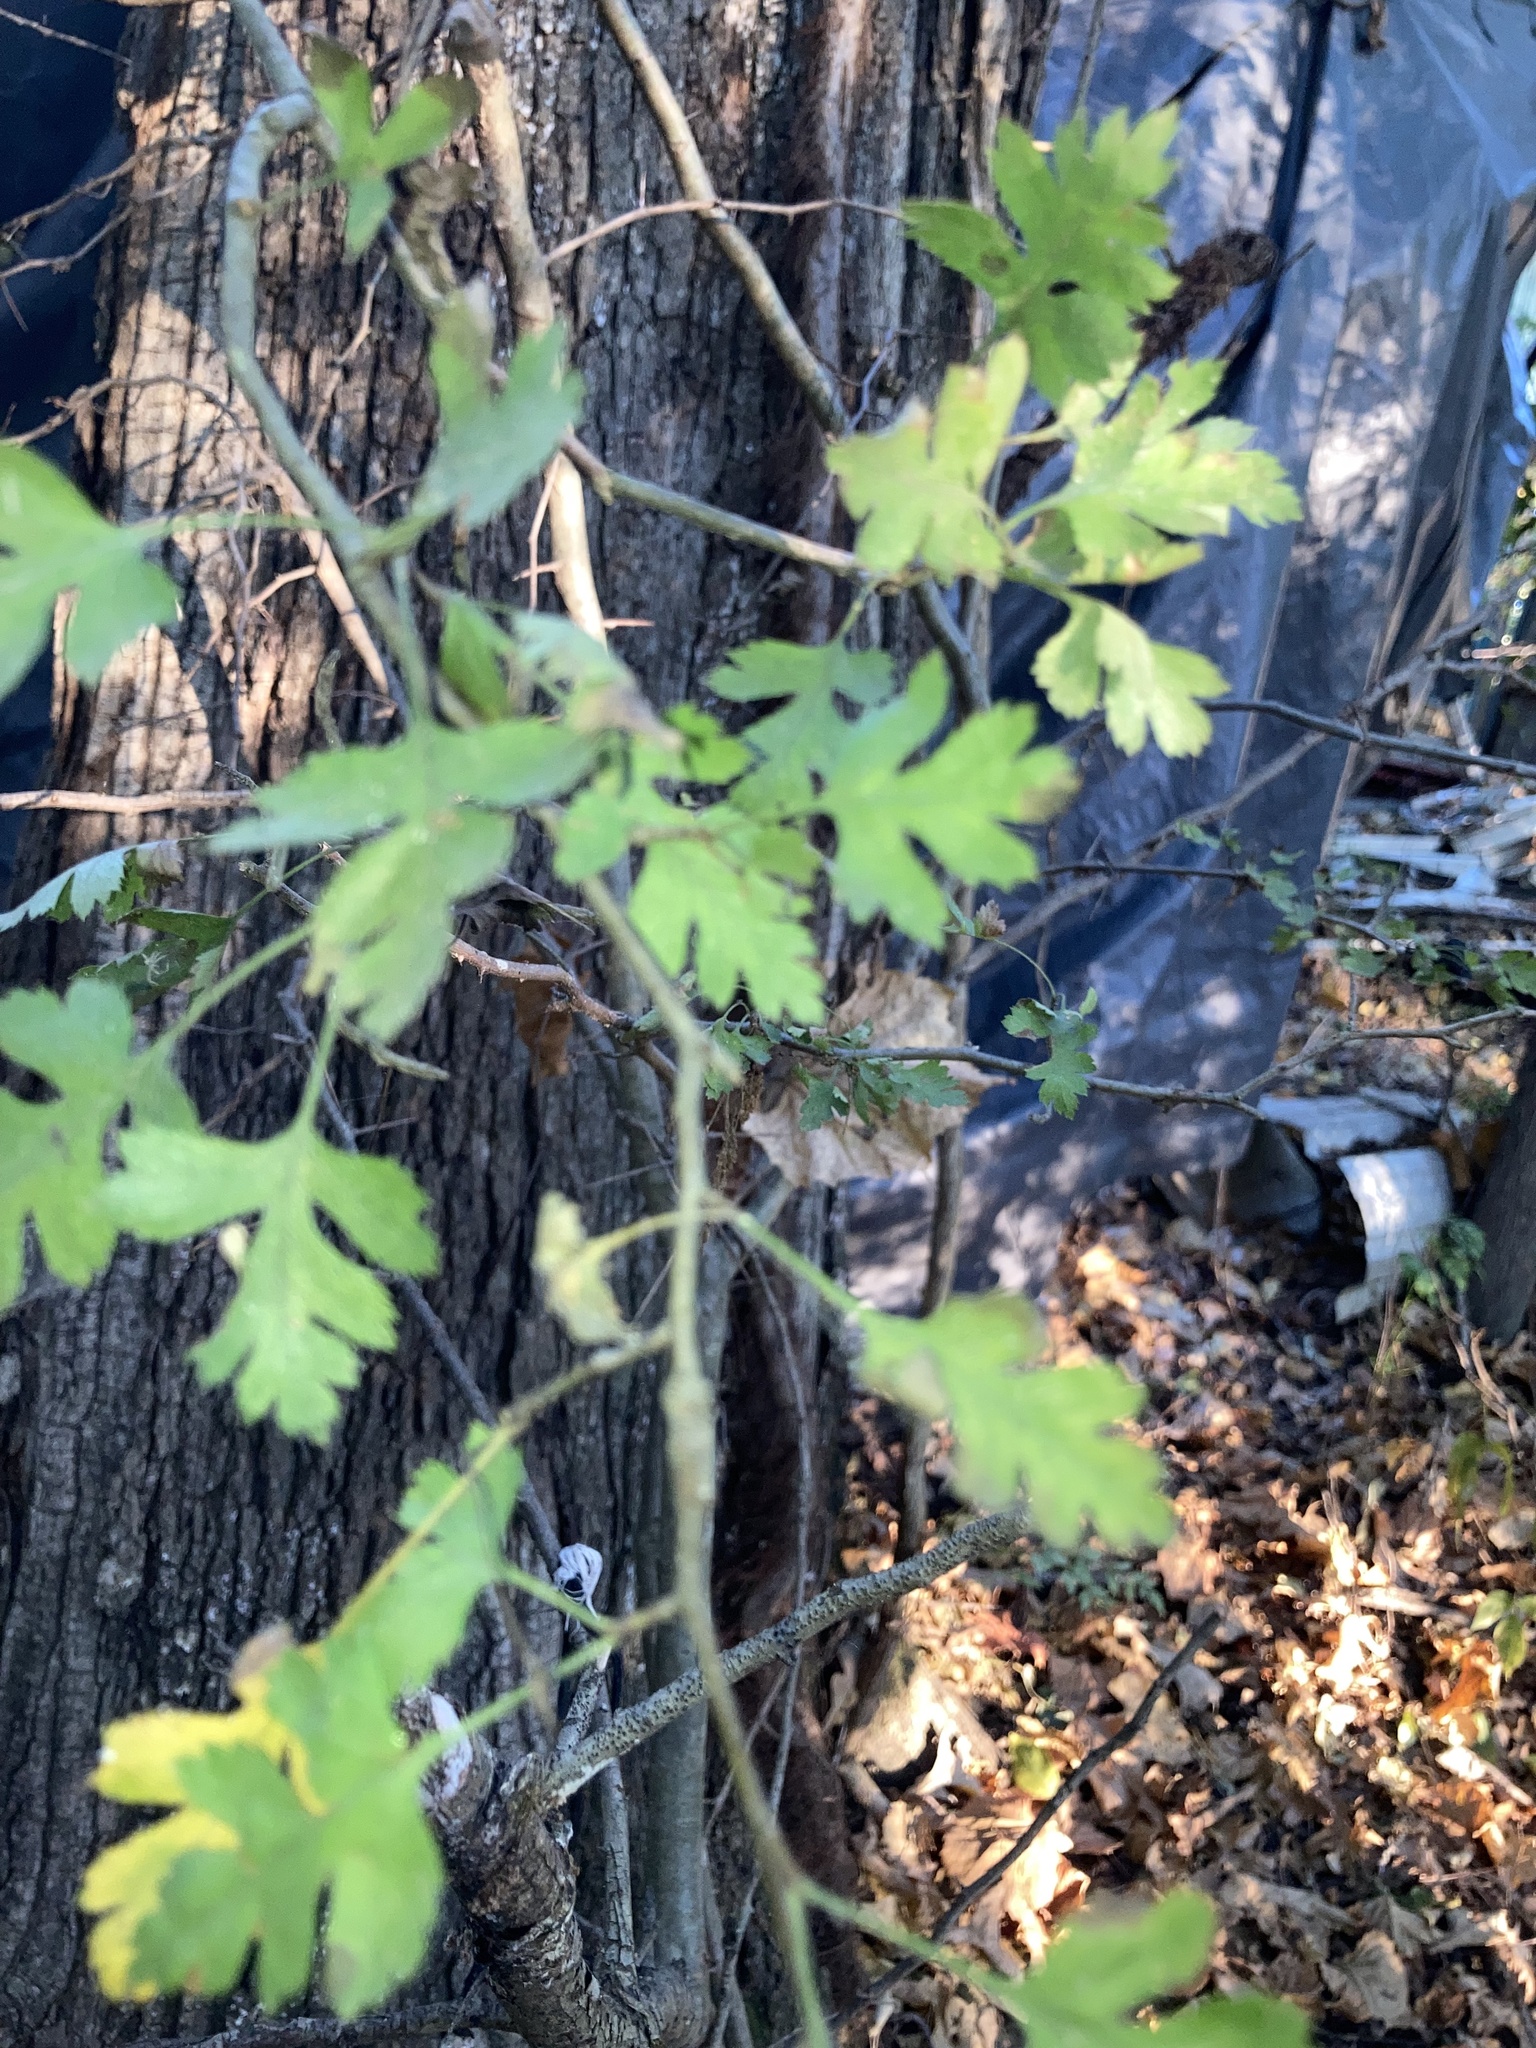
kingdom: Plantae
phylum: Tracheophyta
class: Magnoliopsida
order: Rosales
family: Rosaceae
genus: Crataegus
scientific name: Crataegus marshallii
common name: Parsley-hawthorn
